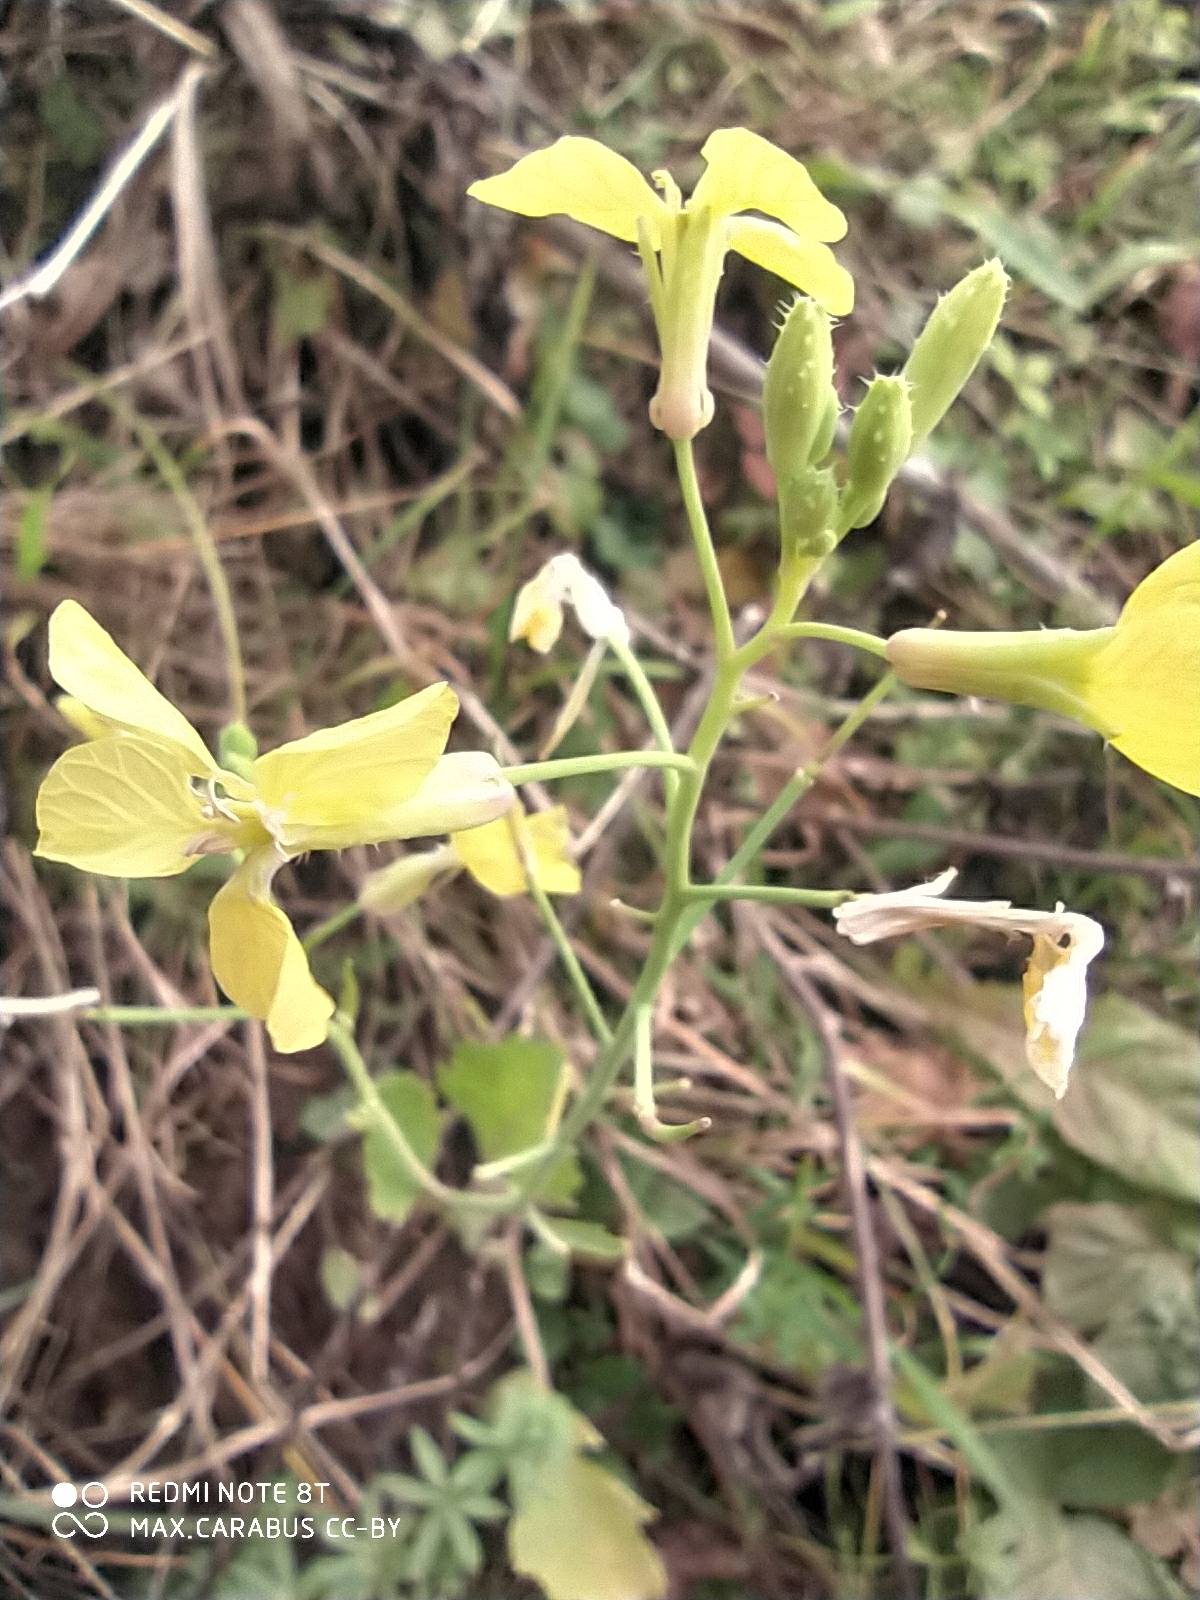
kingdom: Plantae
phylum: Tracheophyta
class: Magnoliopsida
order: Brassicales
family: Brassicaceae
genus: Raphanus
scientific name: Raphanus raphanistrum
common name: Wild radish
